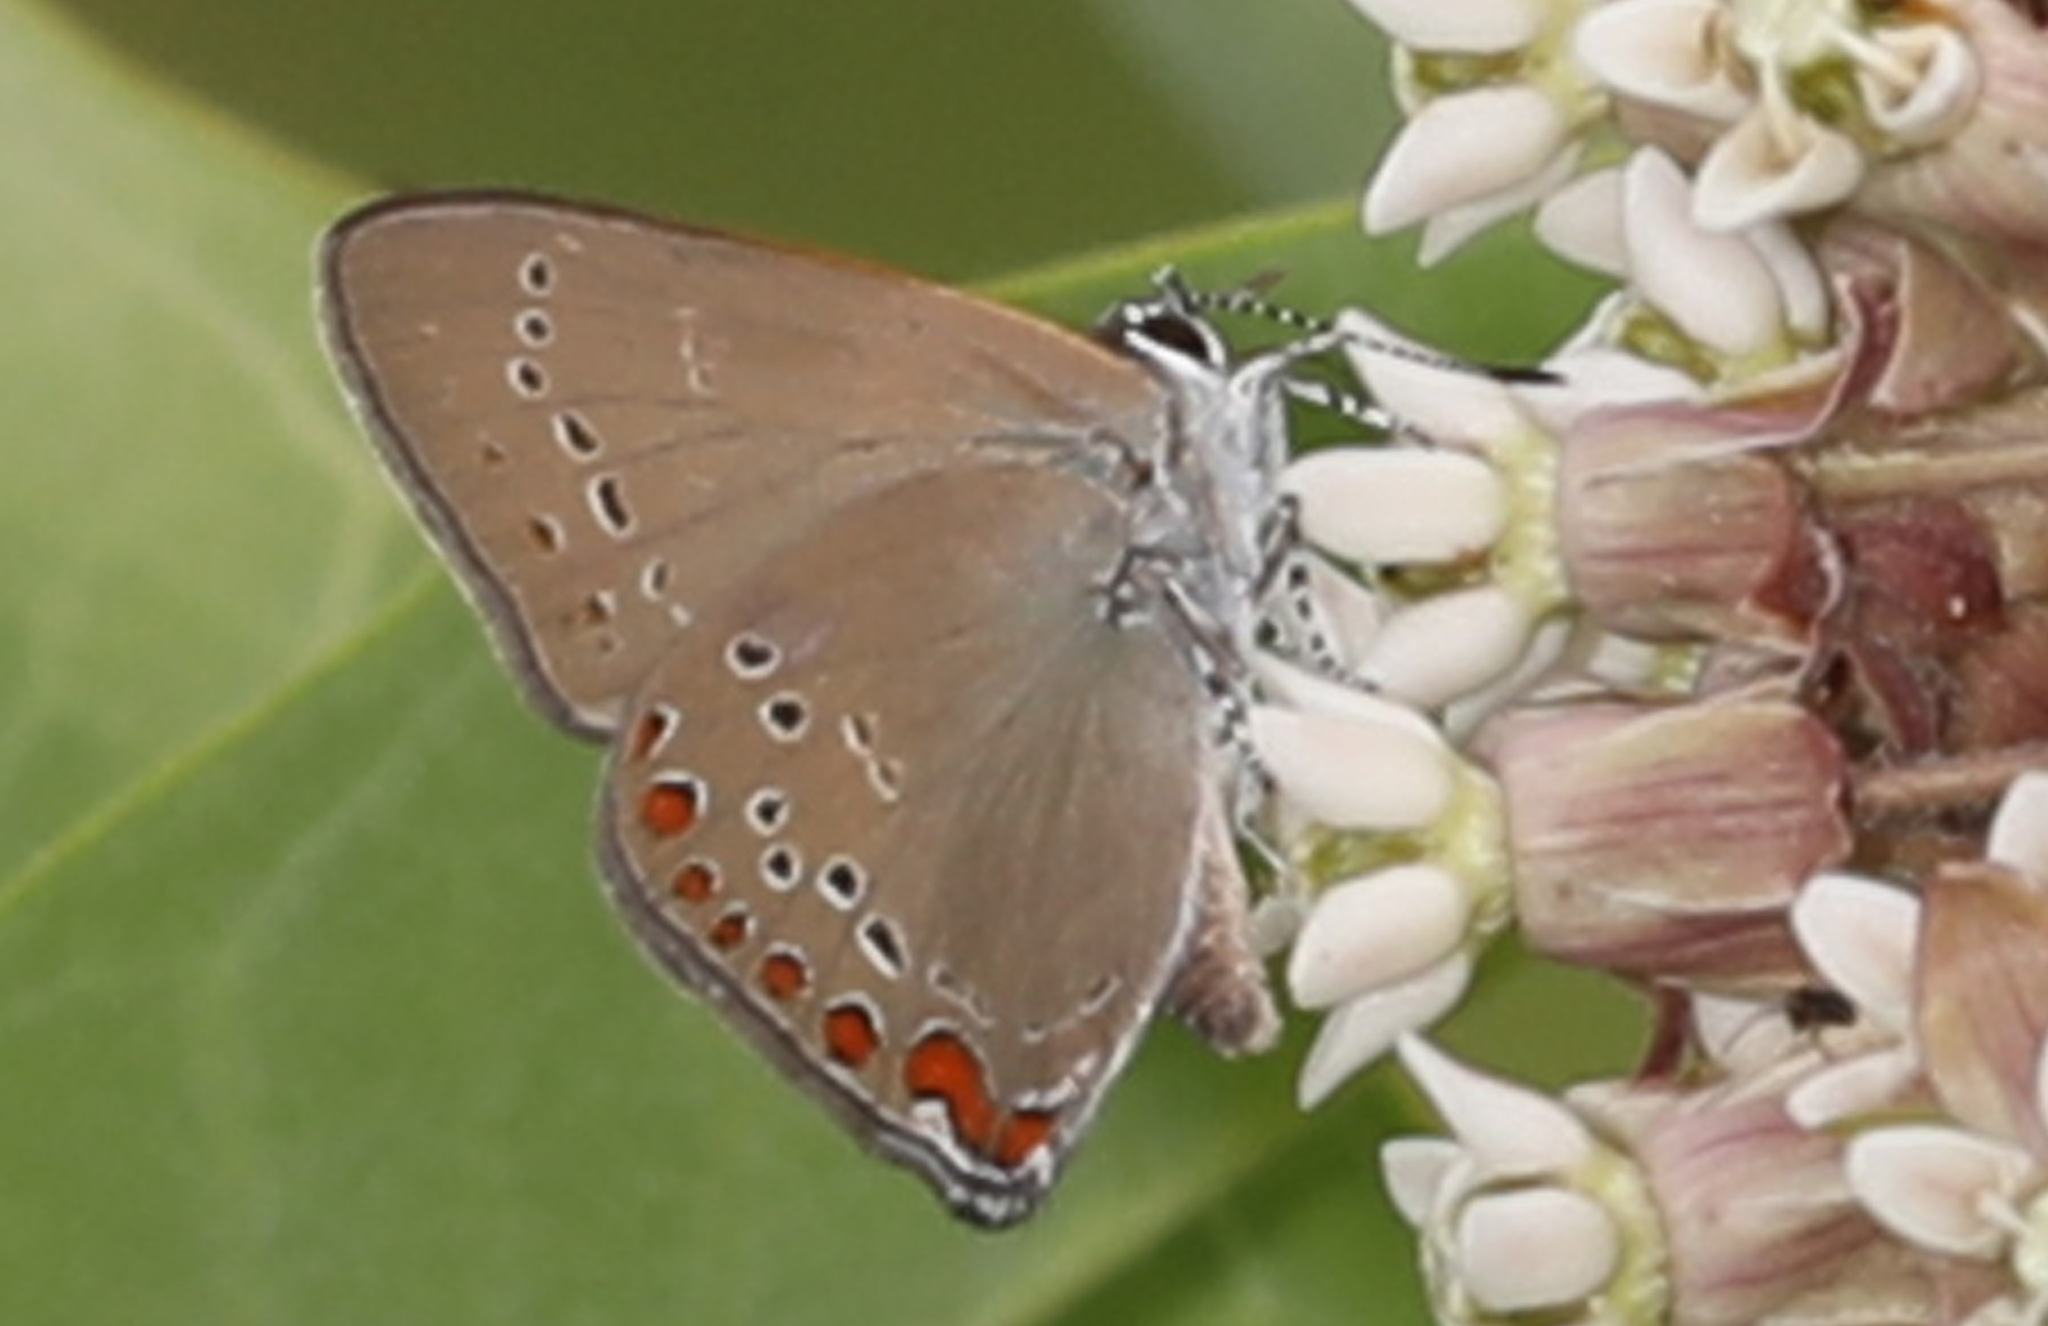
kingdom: Animalia
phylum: Arthropoda
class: Insecta
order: Lepidoptera
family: Lycaenidae
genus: Harkenclenus
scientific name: Harkenclenus titus
